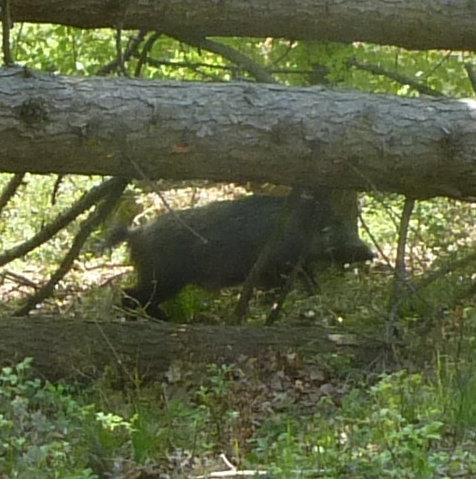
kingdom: Animalia
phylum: Chordata
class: Mammalia
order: Artiodactyla
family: Suidae
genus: Sus
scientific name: Sus scrofa
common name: Wild boar
